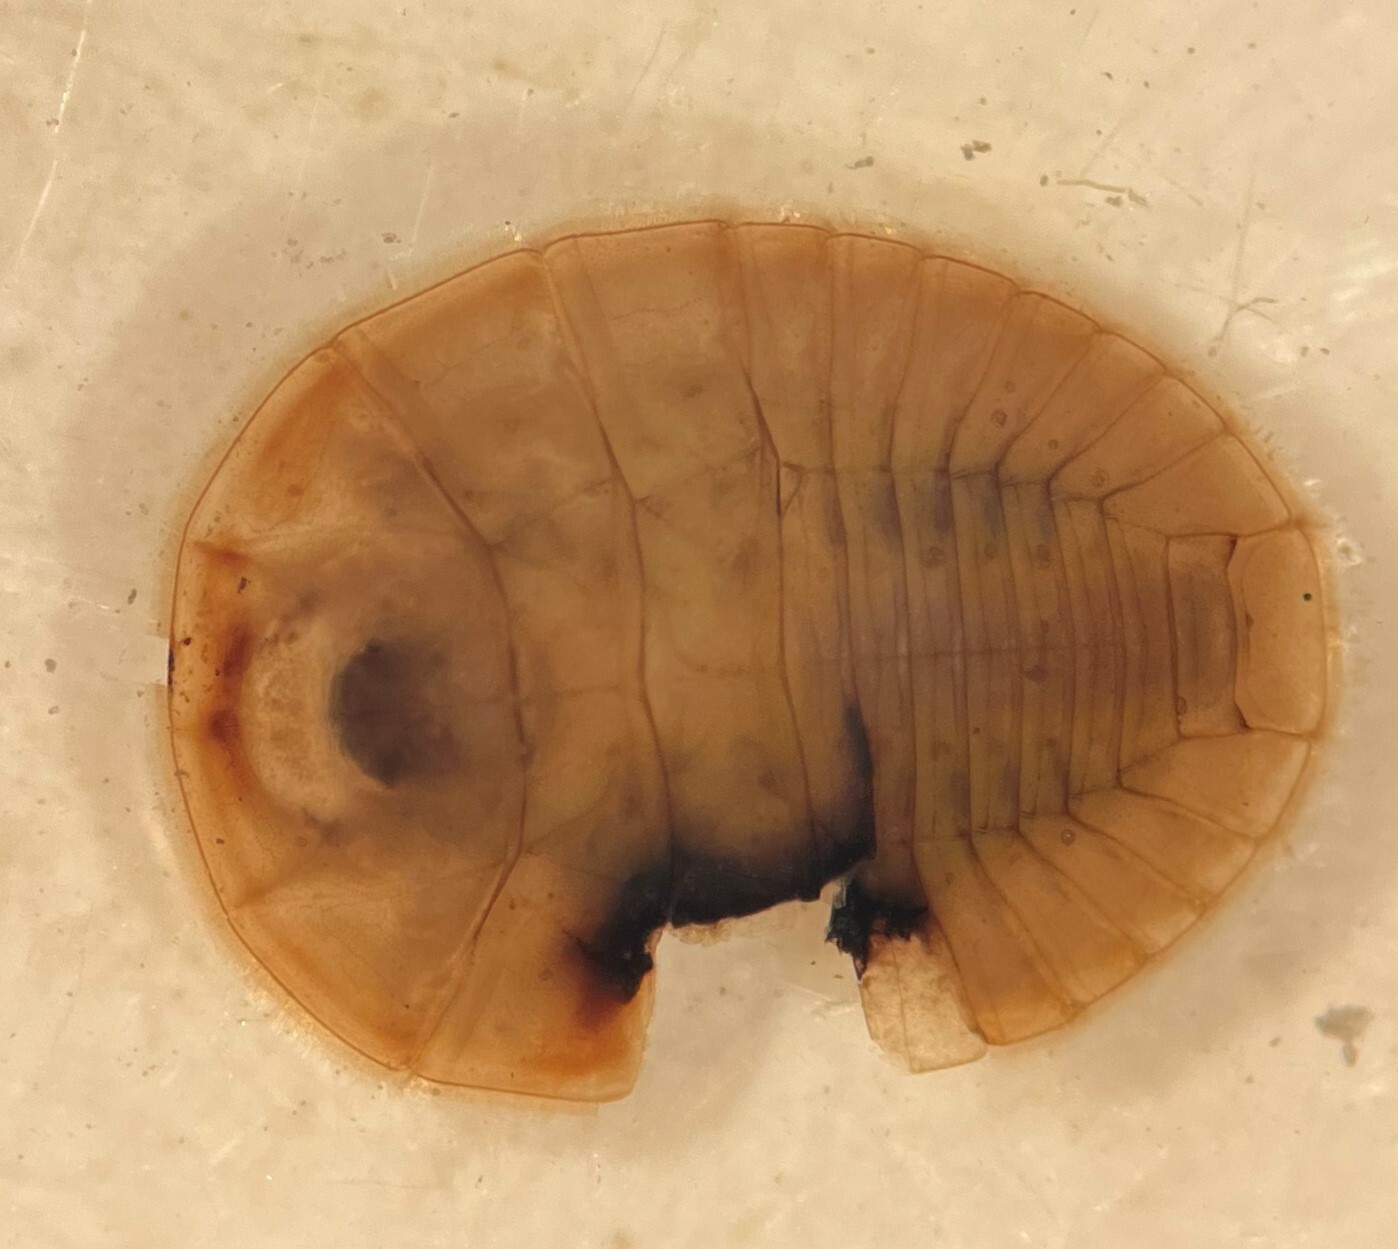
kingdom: Animalia
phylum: Arthropoda
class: Insecta
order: Coleoptera
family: Psephenidae
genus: Psephenus
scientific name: Psephenus texanus
